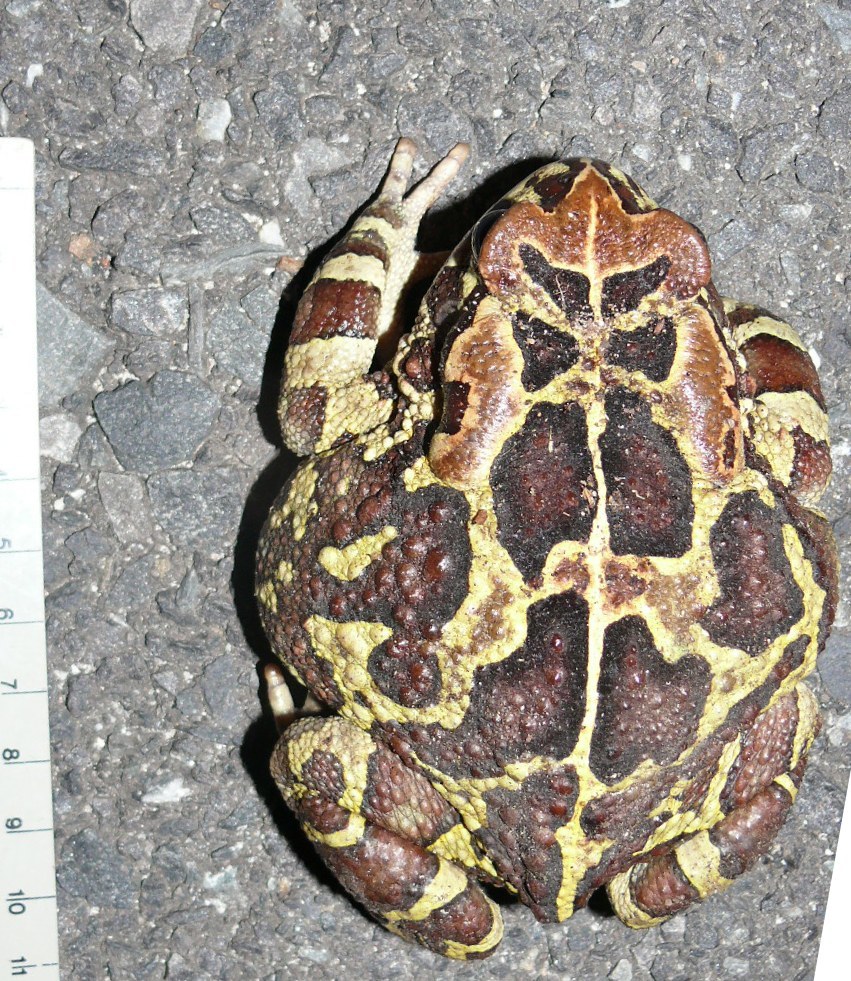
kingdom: Animalia
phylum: Chordata
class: Amphibia
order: Anura
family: Bufonidae
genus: Sclerophrys
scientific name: Sclerophrys pantherina
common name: Panther toad
